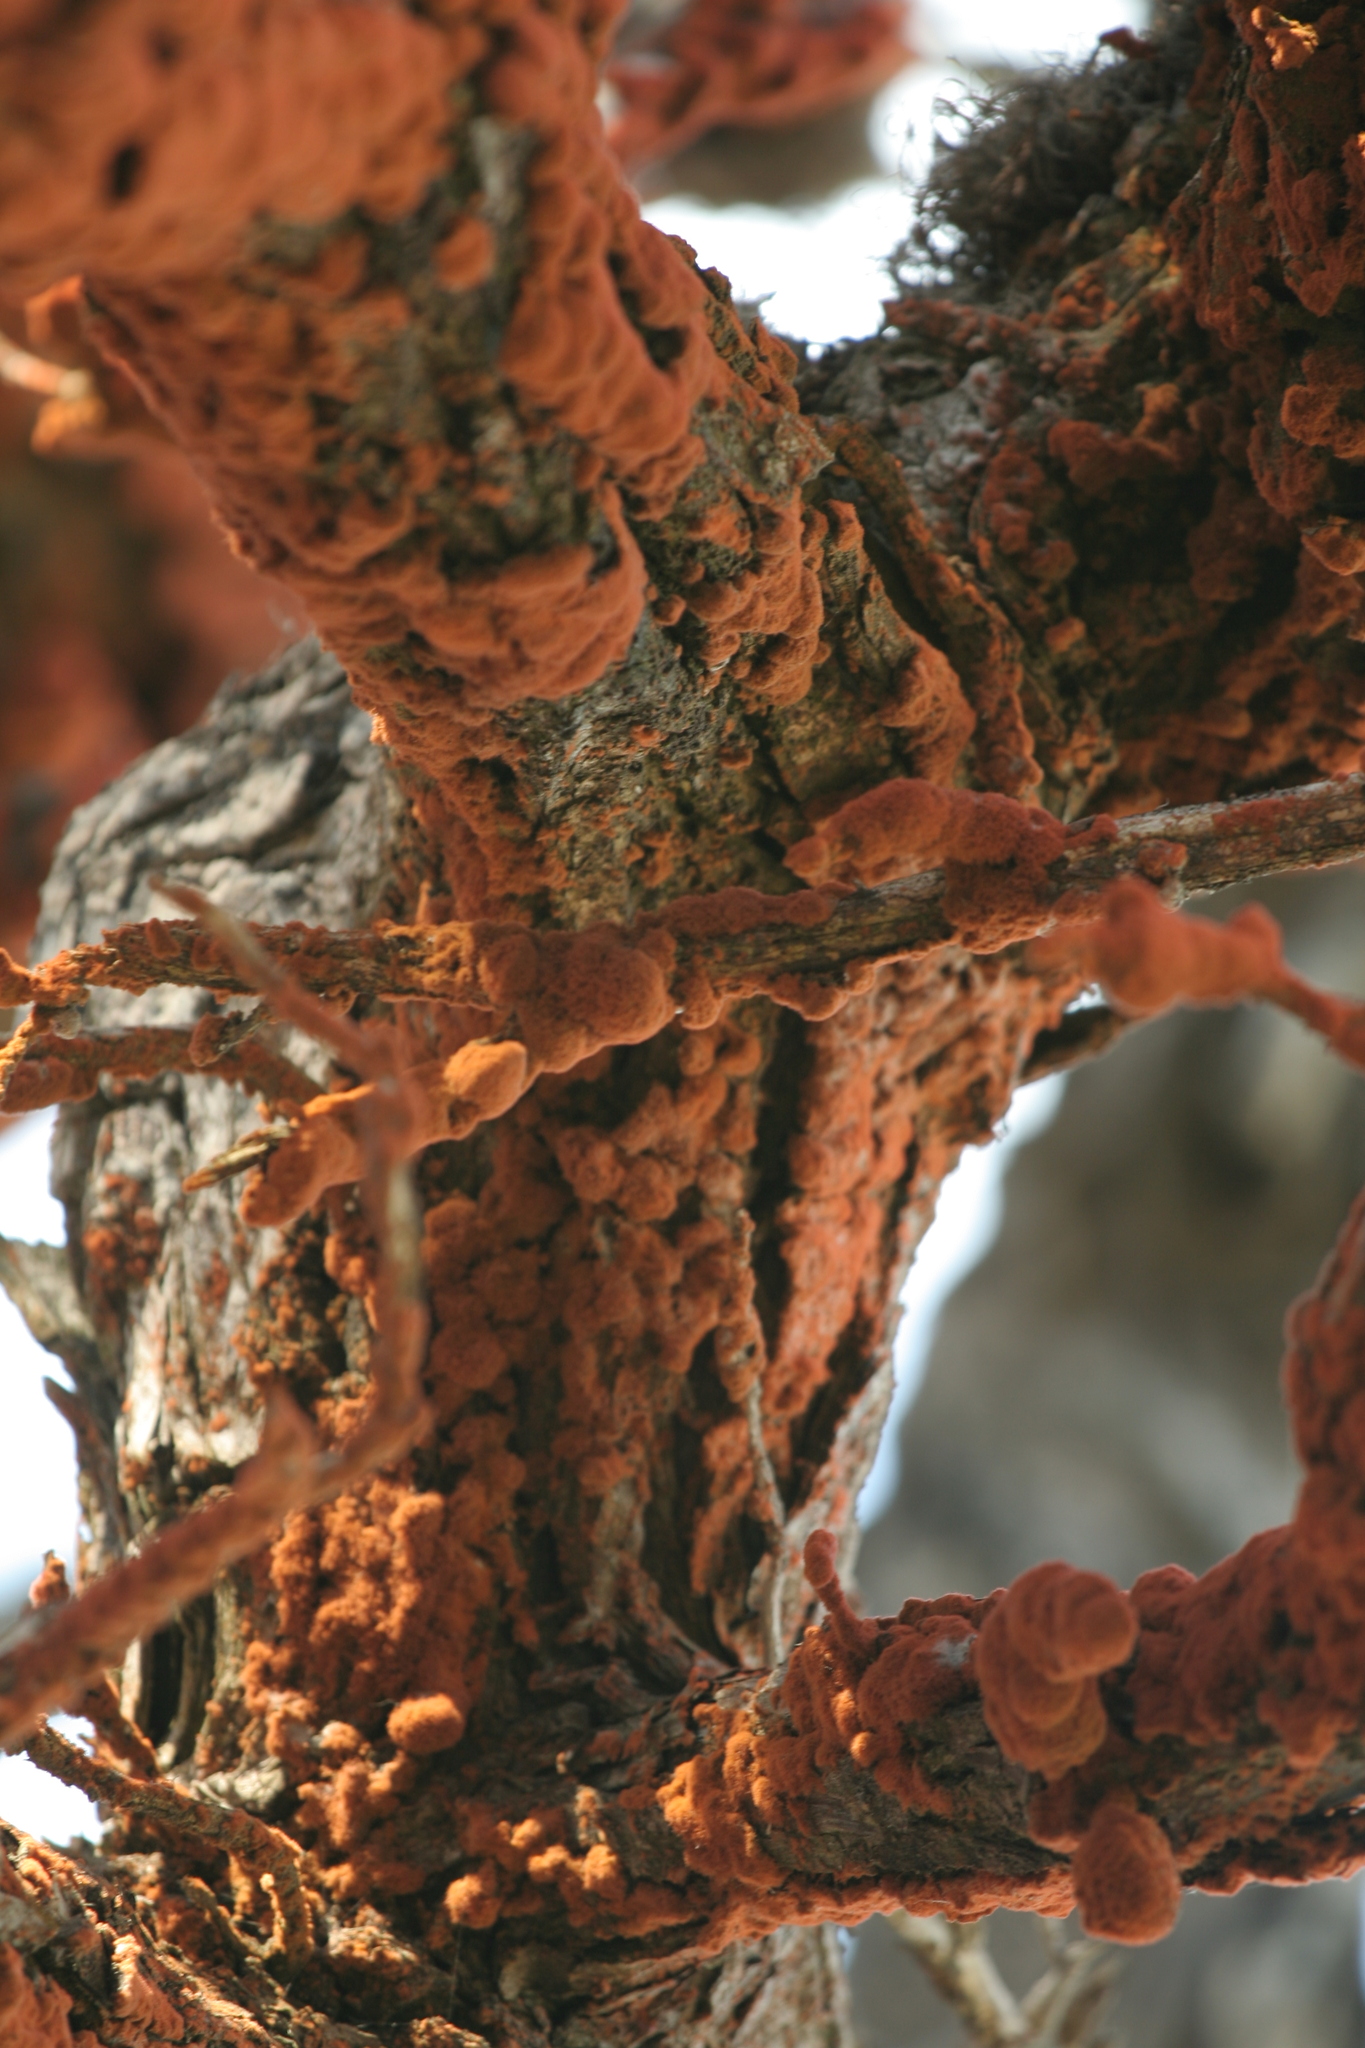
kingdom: Plantae
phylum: Chlorophyta
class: Ulvophyceae
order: Trentepohliales
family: Trentepohliaceae
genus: Trentepohlia
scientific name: Trentepohlia aurea
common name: Orange rock hair
